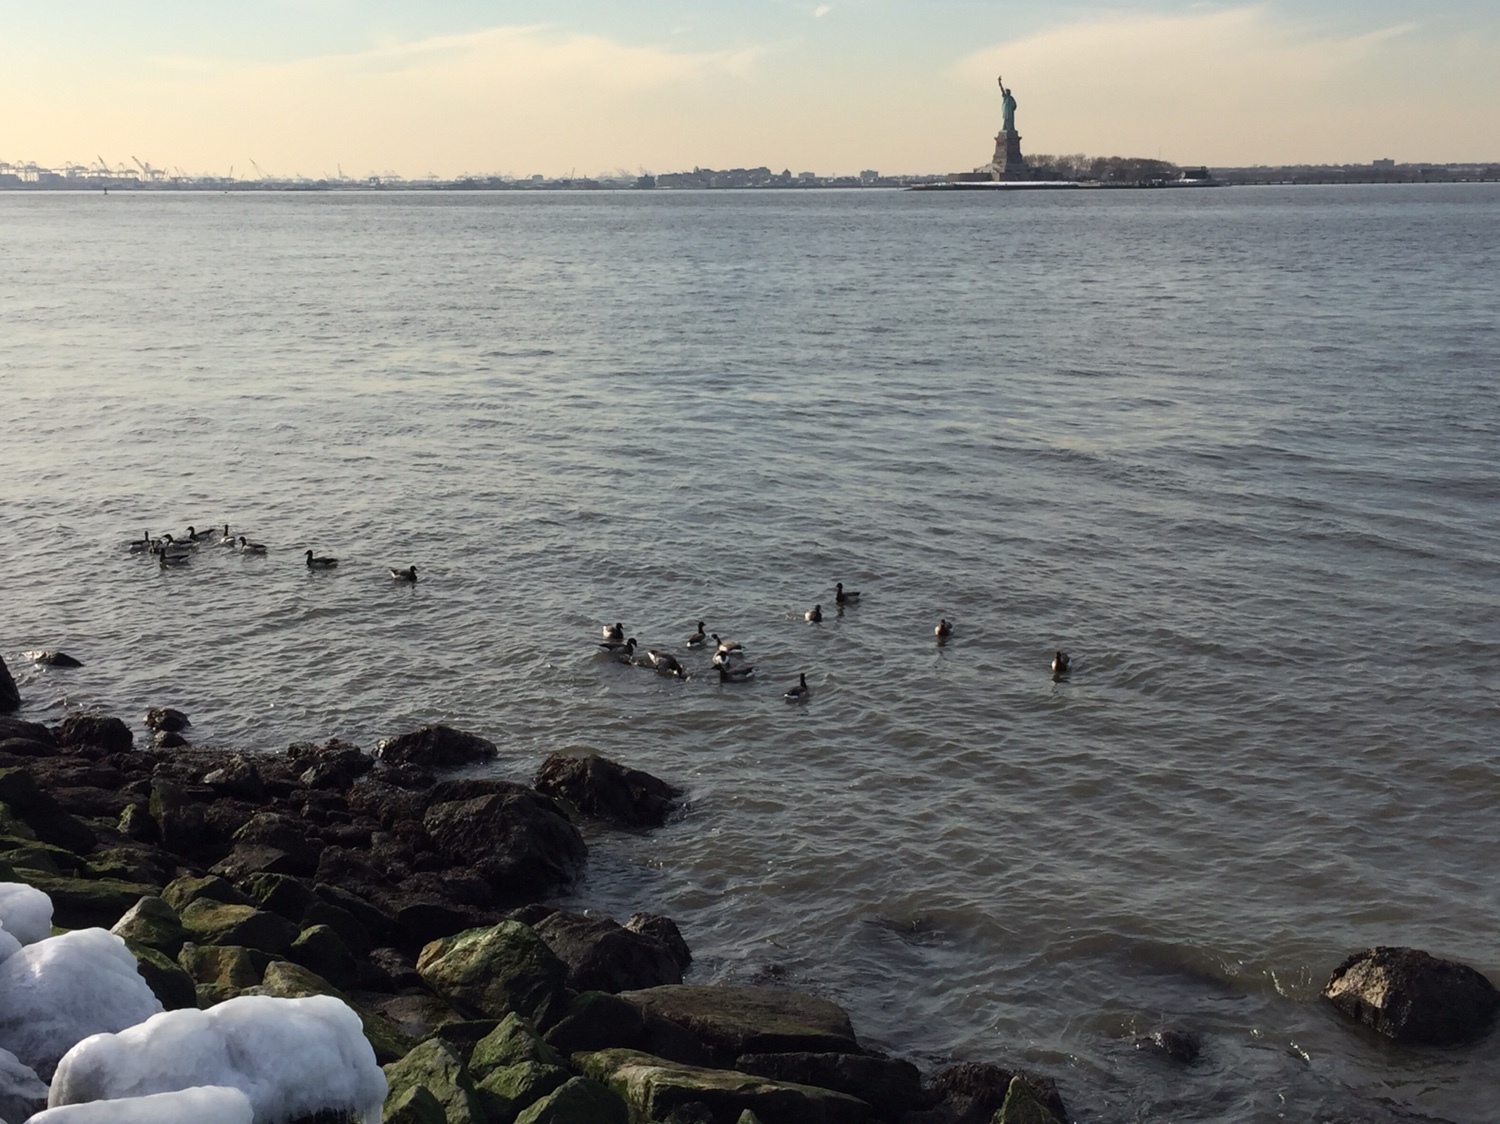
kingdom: Animalia
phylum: Chordata
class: Aves
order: Anseriformes
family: Anatidae
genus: Branta
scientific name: Branta bernicla
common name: Brant goose
